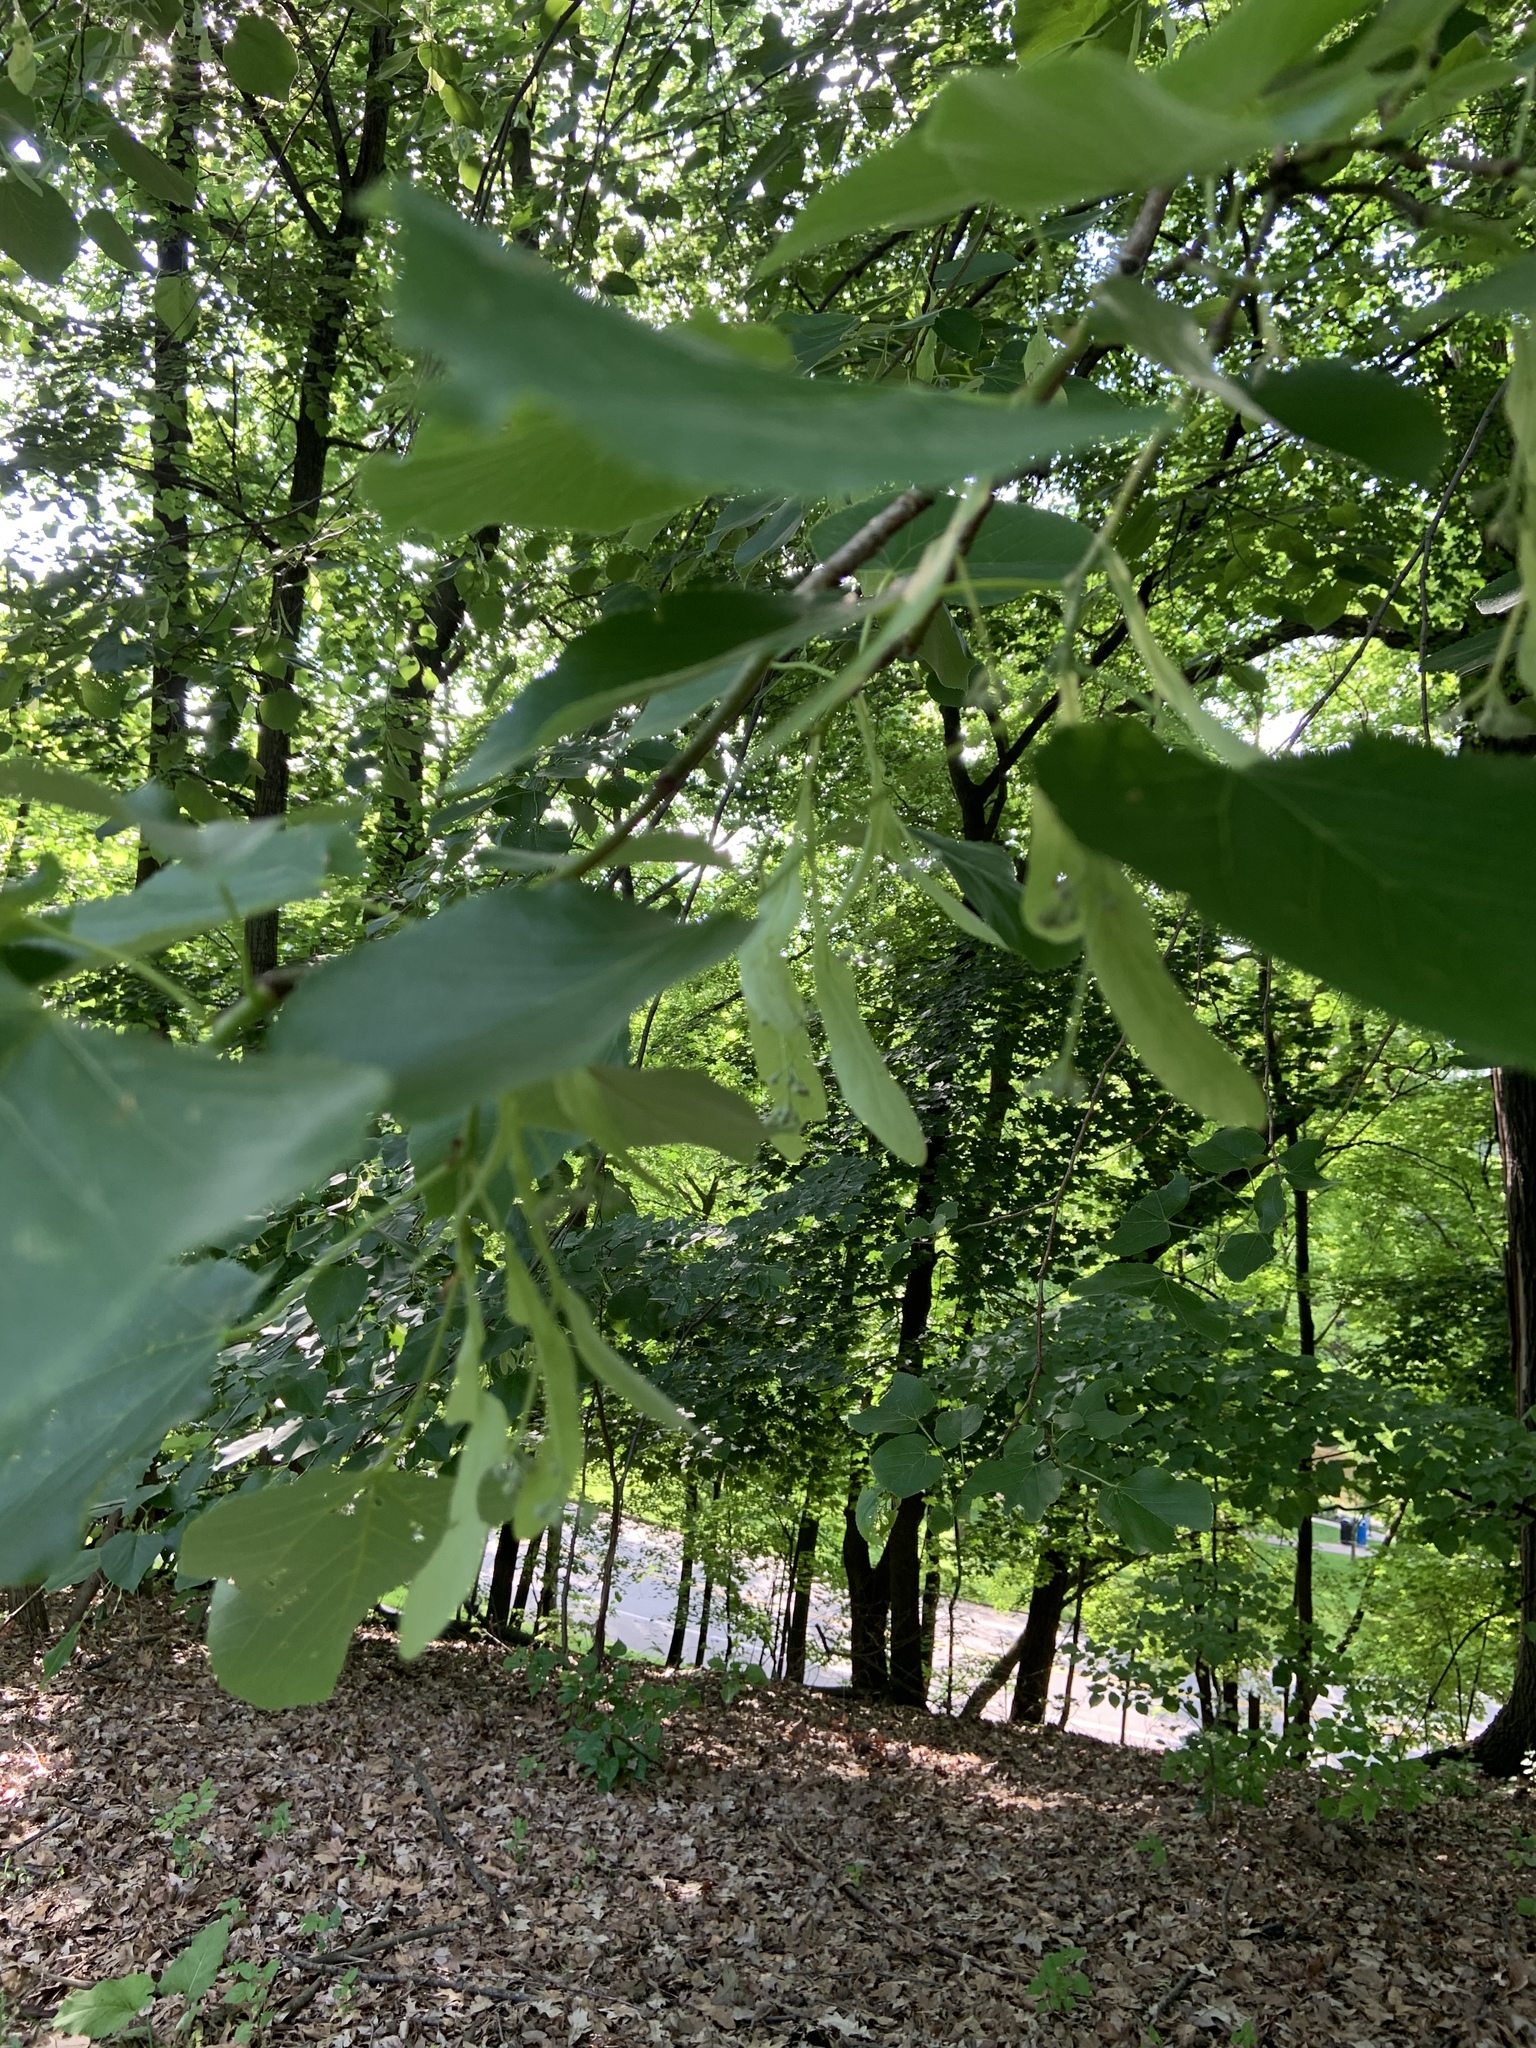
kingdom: Plantae
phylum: Tracheophyta
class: Magnoliopsida
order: Malvales
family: Malvaceae
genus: Tilia
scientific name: Tilia americana
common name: Basswood
